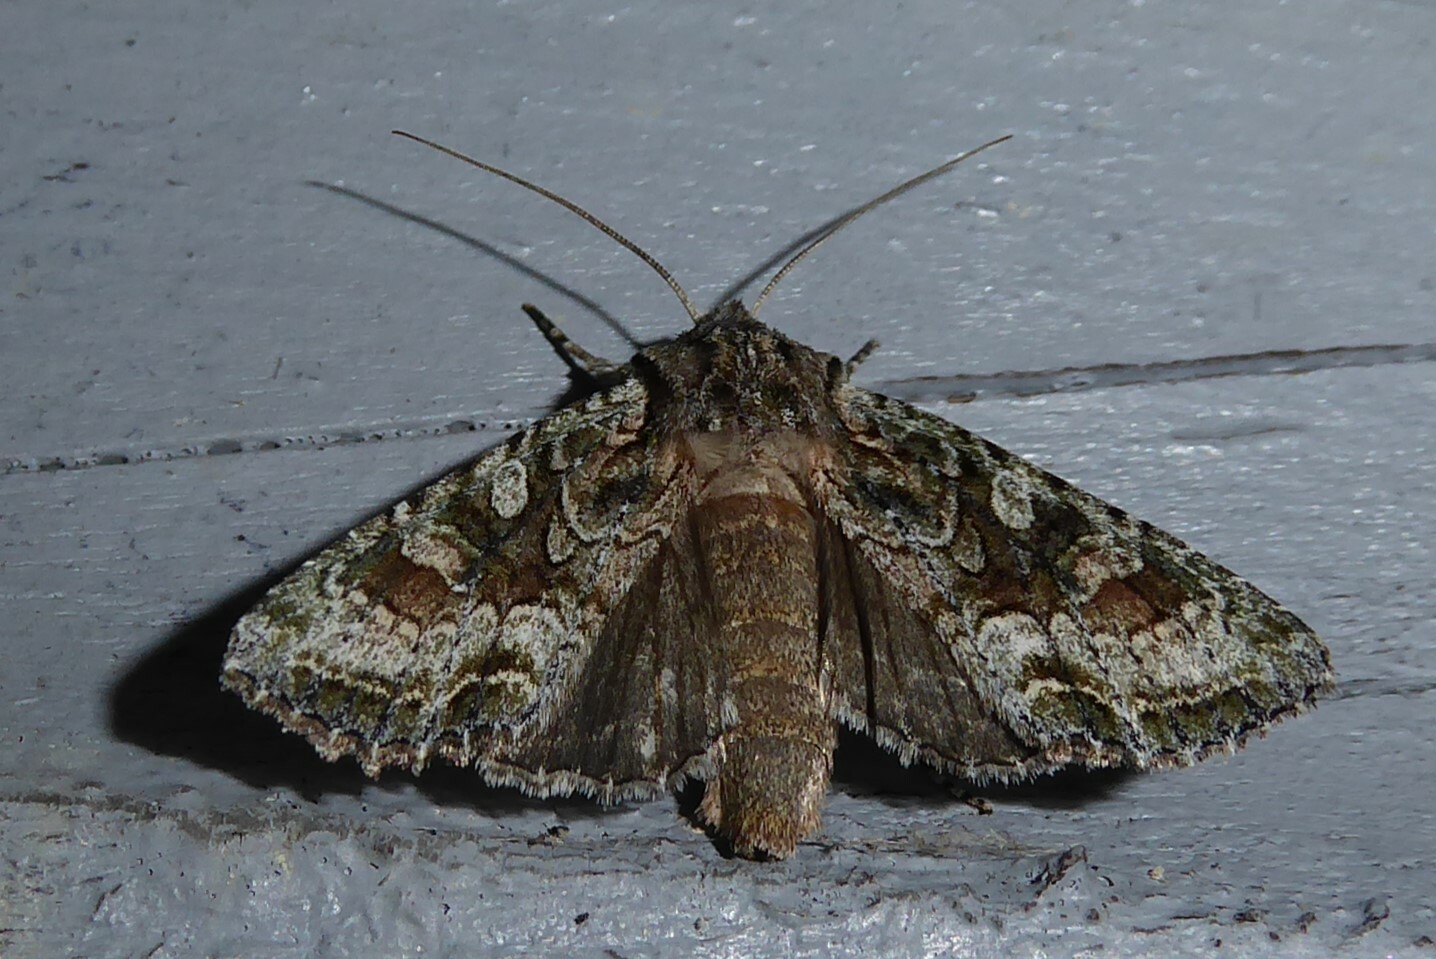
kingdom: Animalia
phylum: Arthropoda
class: Insecta
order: Lepidoptera
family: Noctuidae
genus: Ichneutica
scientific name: Ichneutica mutans
